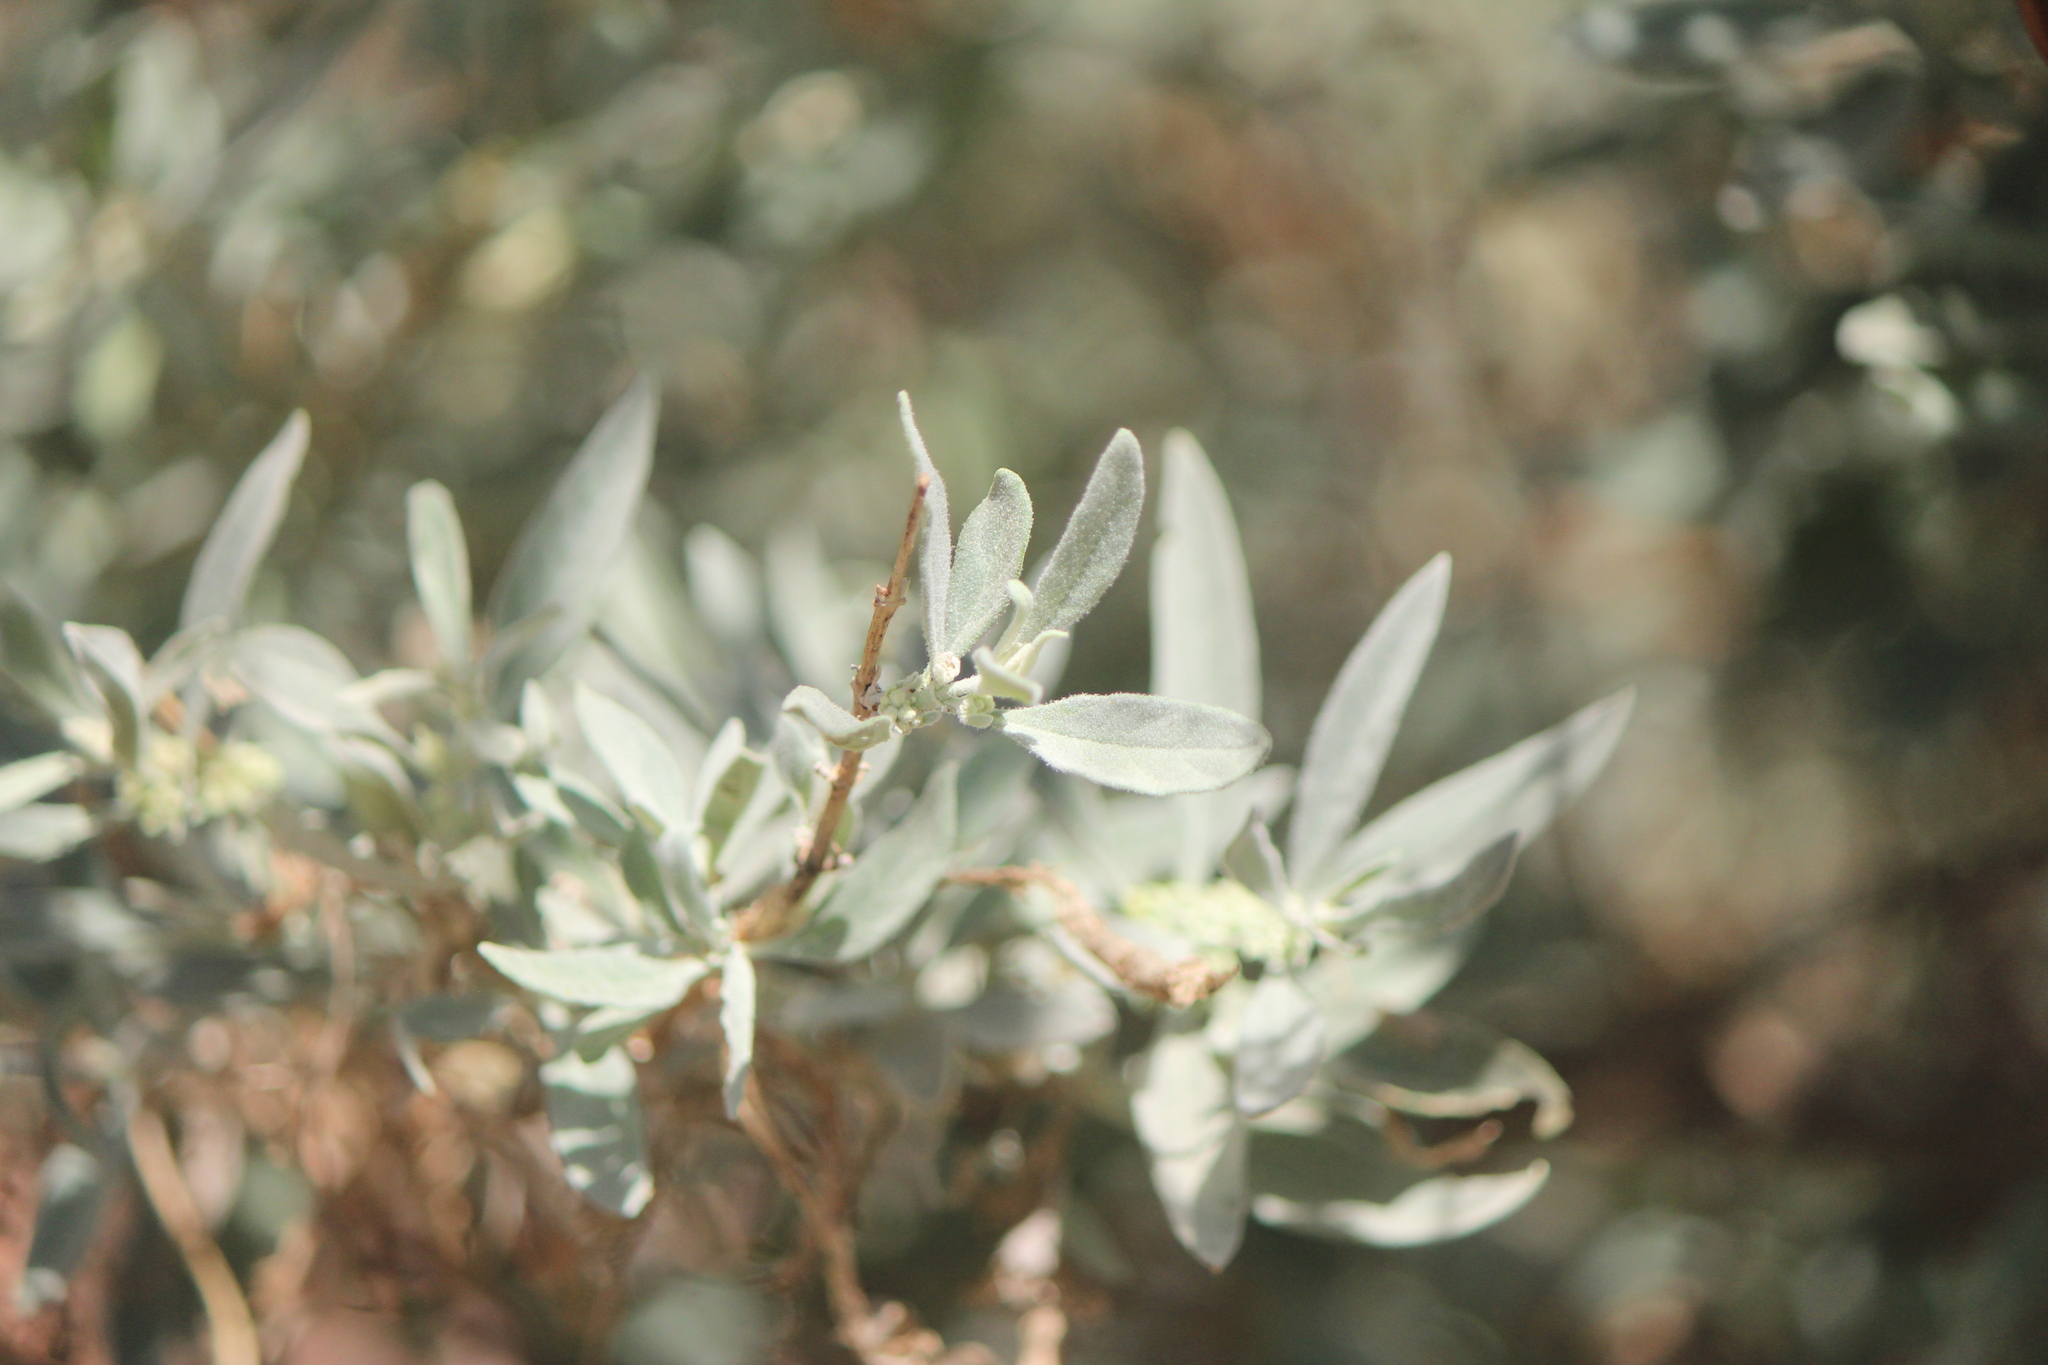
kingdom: Plantae
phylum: Tracheophyta
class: Magnoliopsida
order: Lamiales
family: Scrophulariaceae
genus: Buddleja
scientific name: Buddleja sessiliflora
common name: Rio grande butterfly-bush
